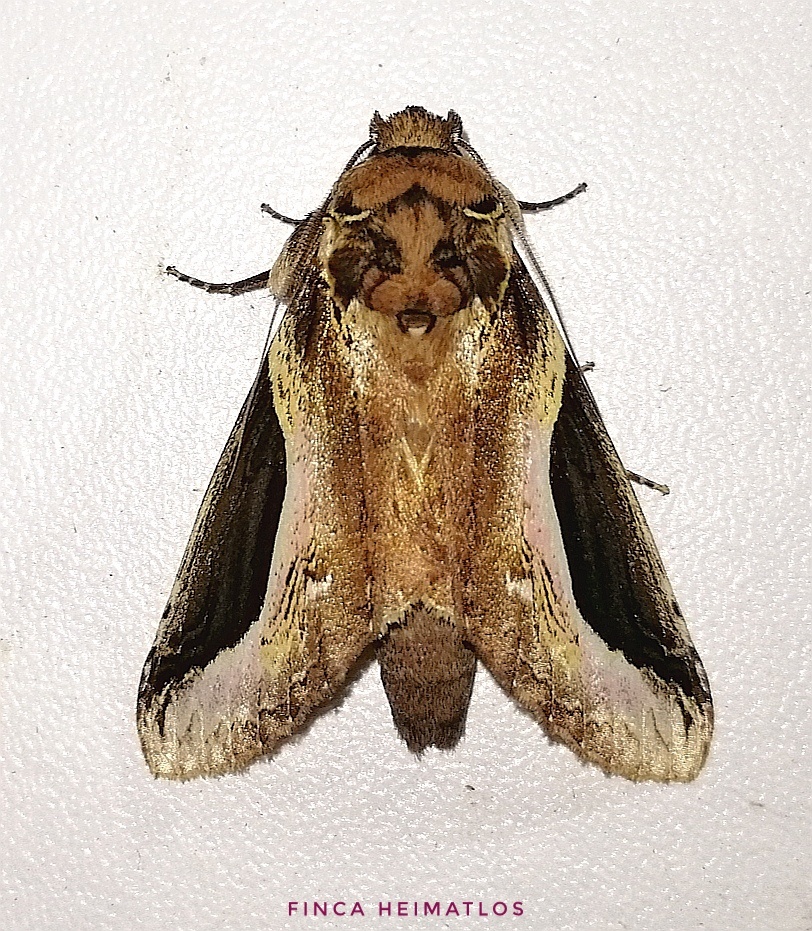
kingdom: Animalia
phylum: Arthropoda
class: Insecta
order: Lepidoptera
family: Notodontidae
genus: Rhuda
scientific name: Rhuda focula
